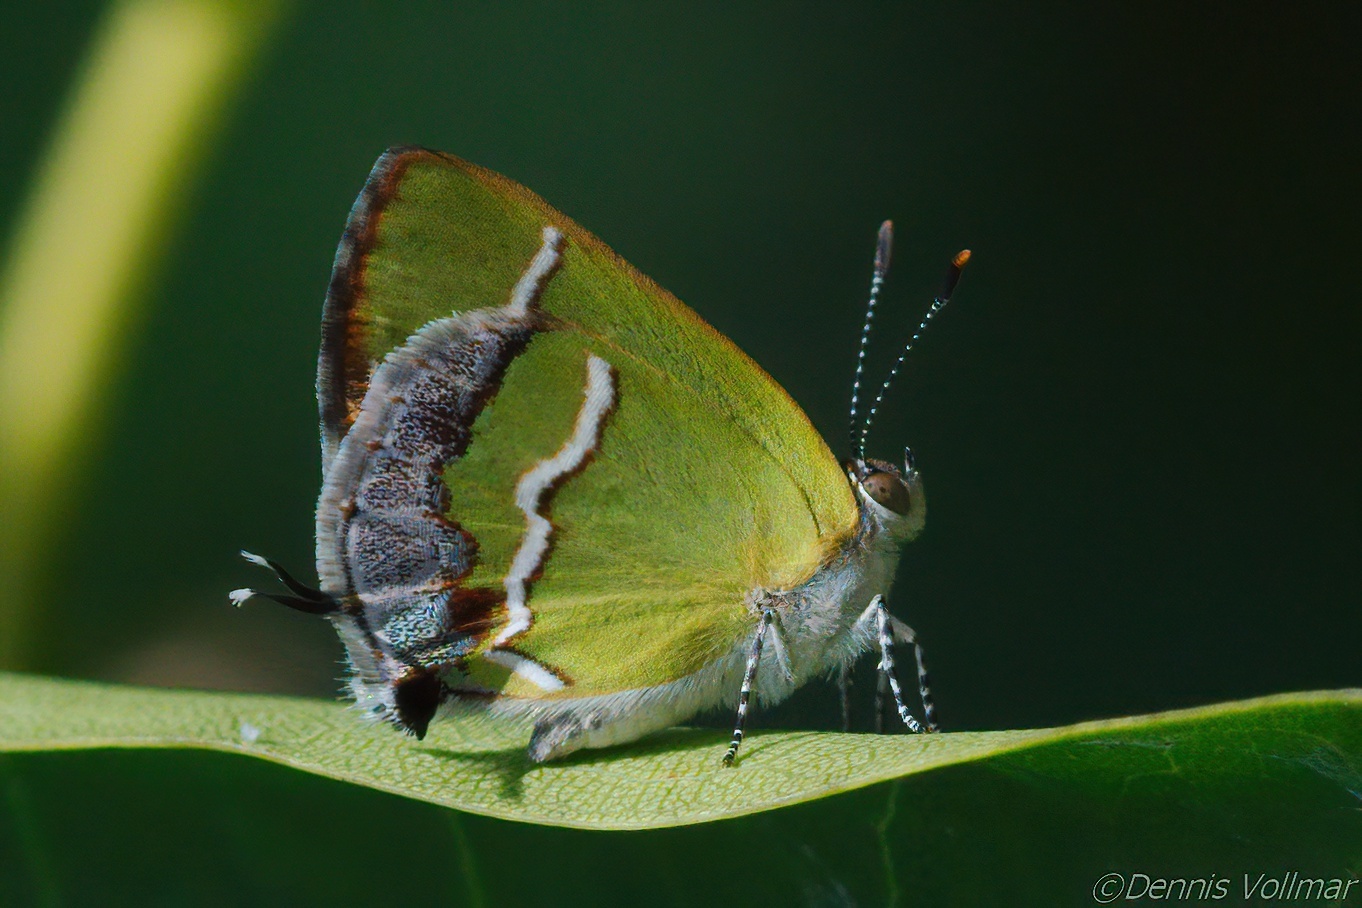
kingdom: Animalia
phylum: Arthropoda
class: Insecta
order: Lepidoptera
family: Lycaenidae
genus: Chlorostrymon
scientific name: Chlorostrymon simaethis
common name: Silver-banded hairstreak
